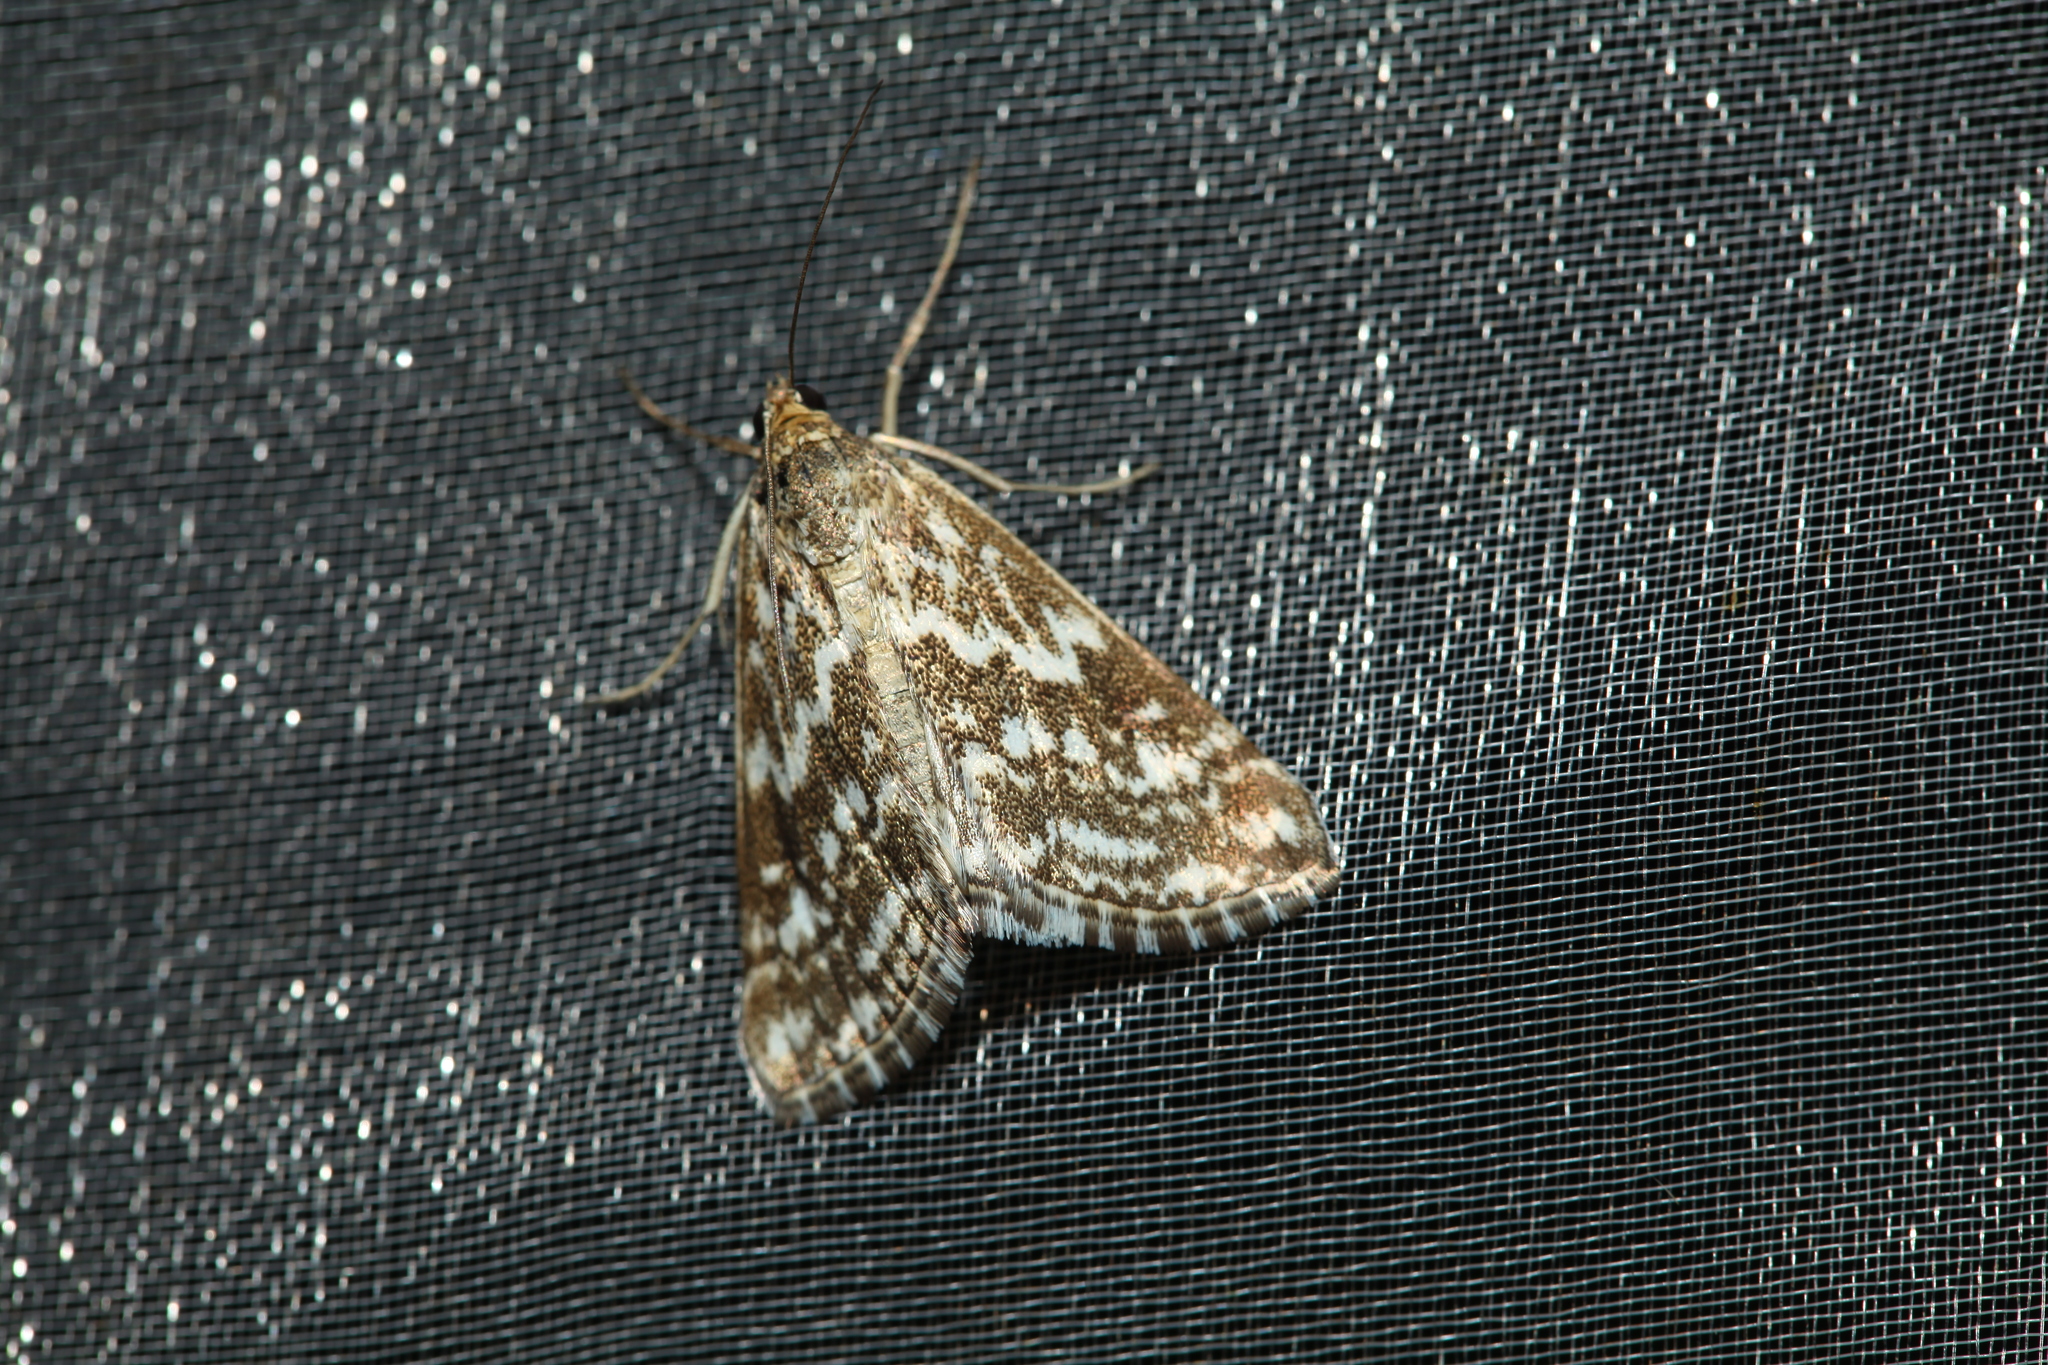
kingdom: Animalia
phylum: Arthropoda
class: Insecta
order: Lepidoptera
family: Crambidae
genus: Evergestis
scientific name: Evergestis frumentalis
